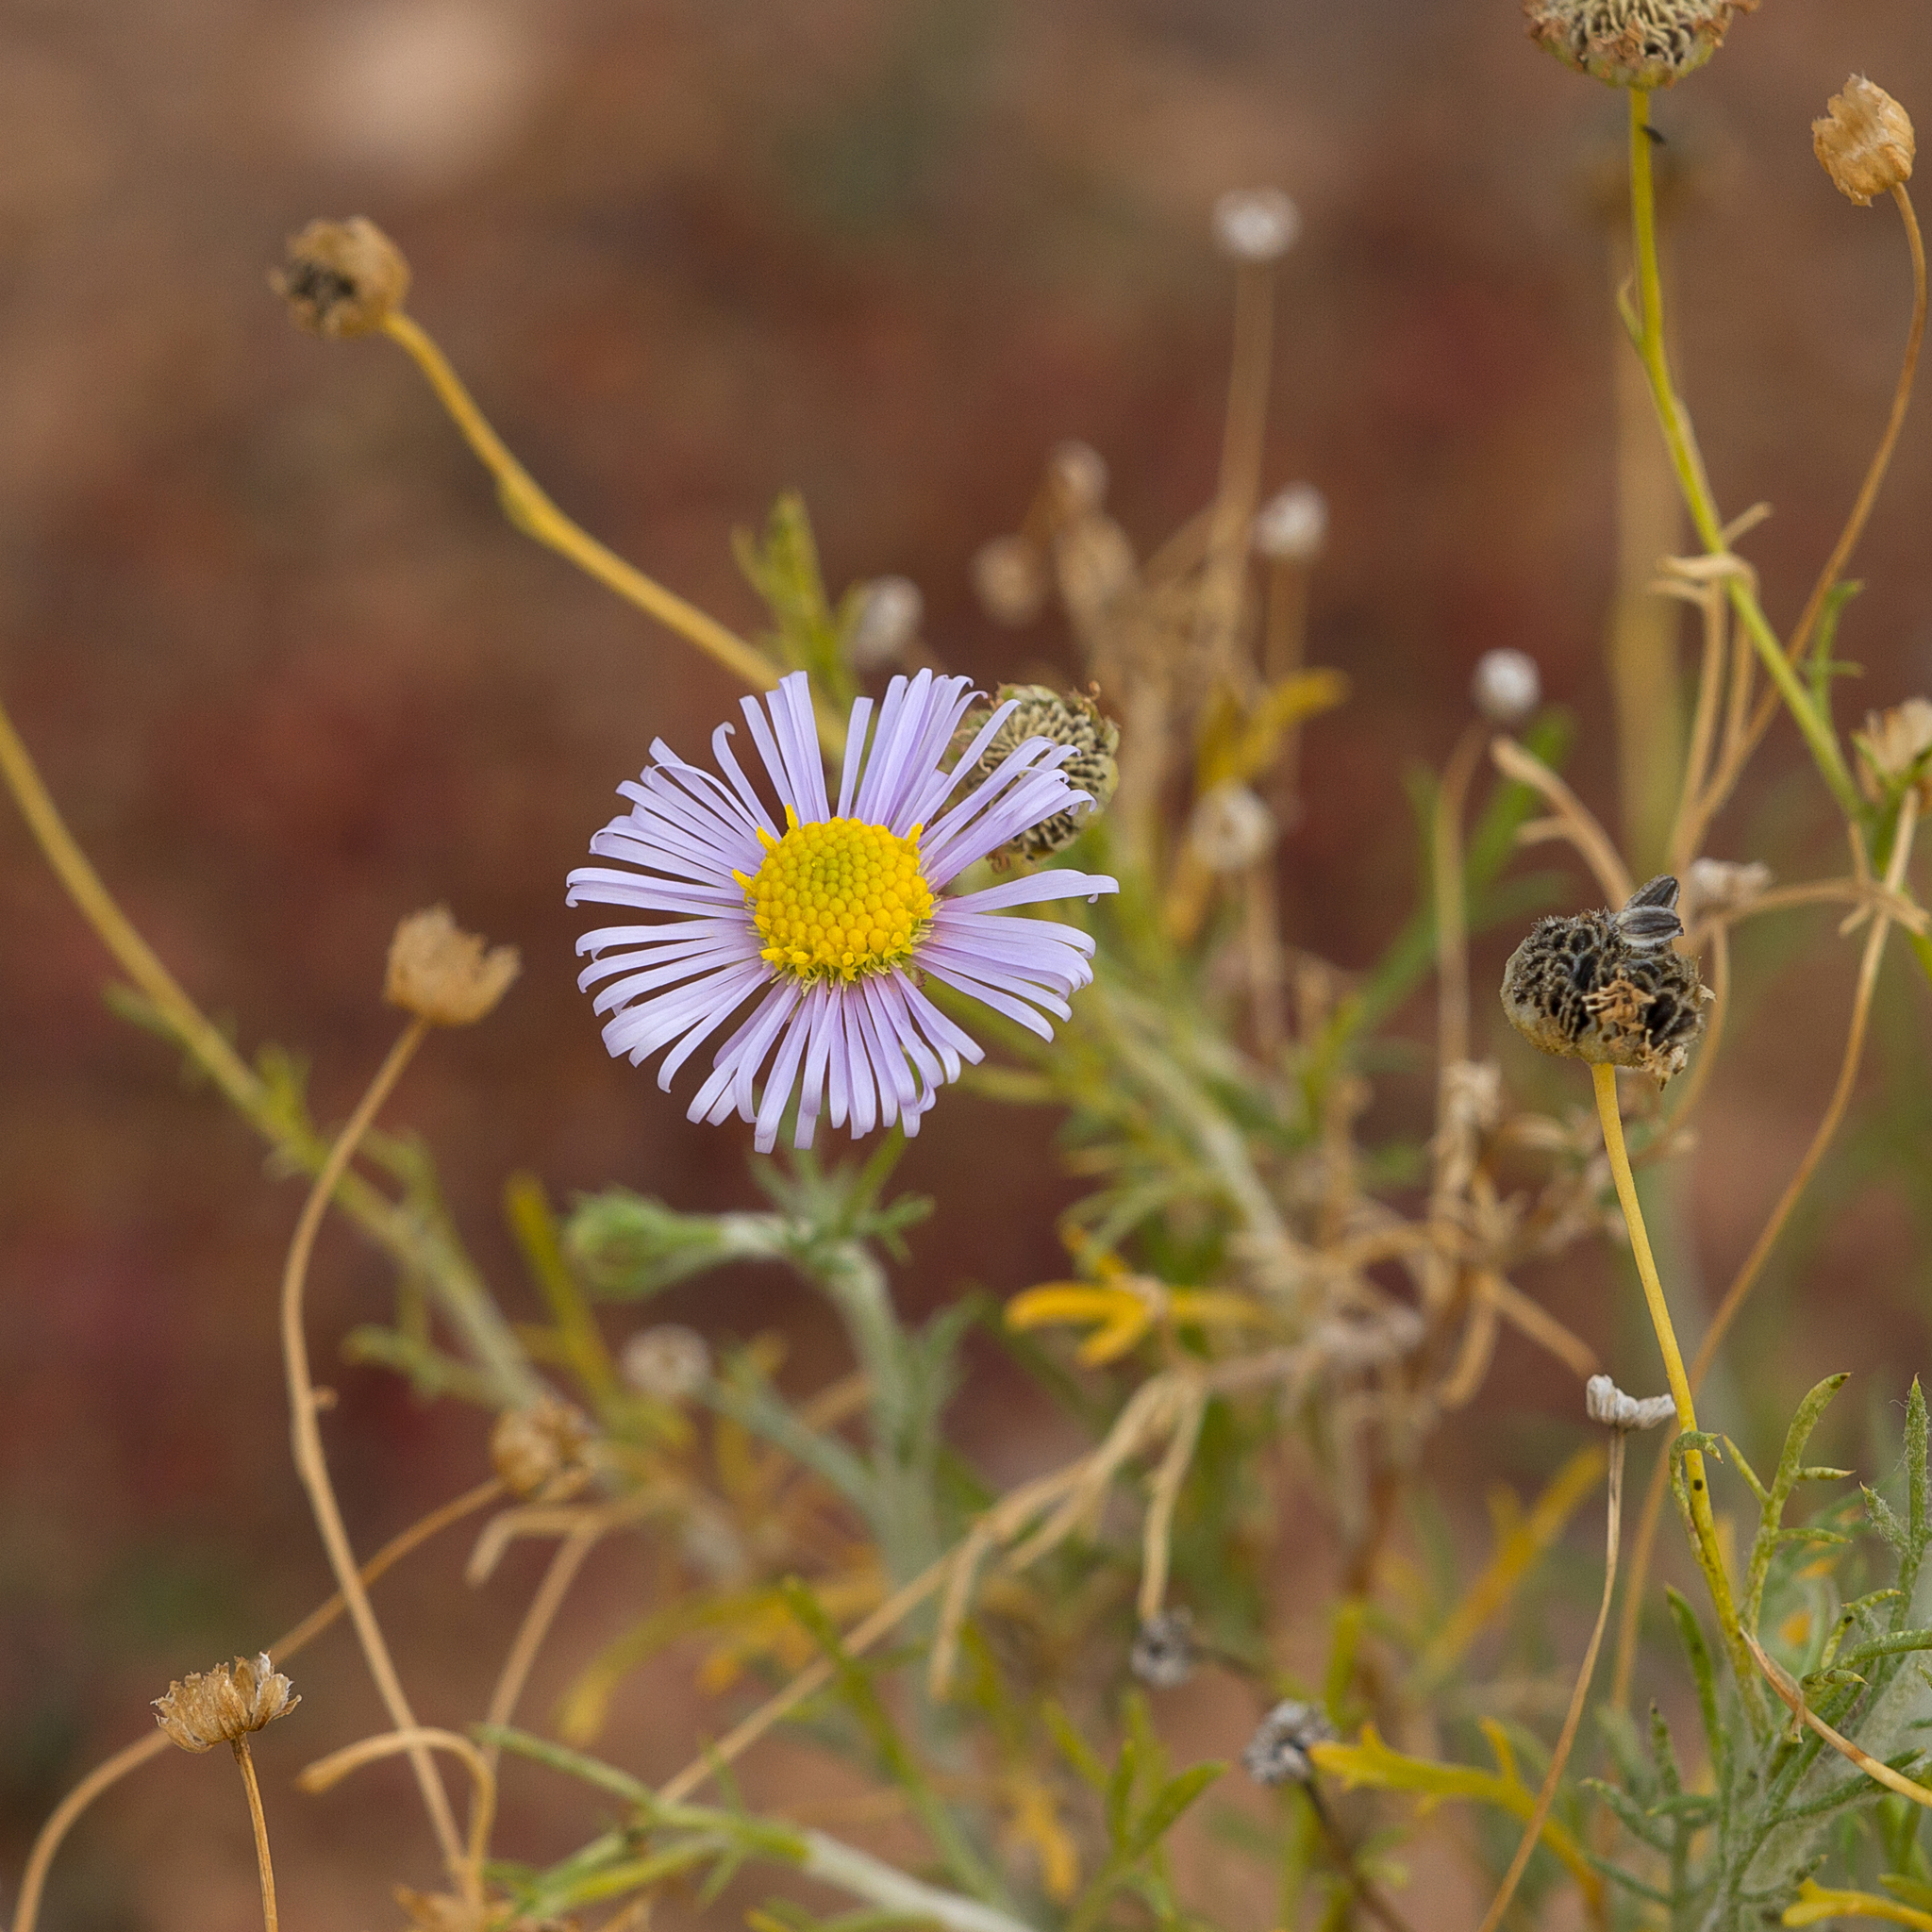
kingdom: Plantae
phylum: Tracheophyta
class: Magnoliopsida
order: Asterales
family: Asteraceae
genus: Brachyscome
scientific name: Brachyscome ciliaris
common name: Variable daisy
